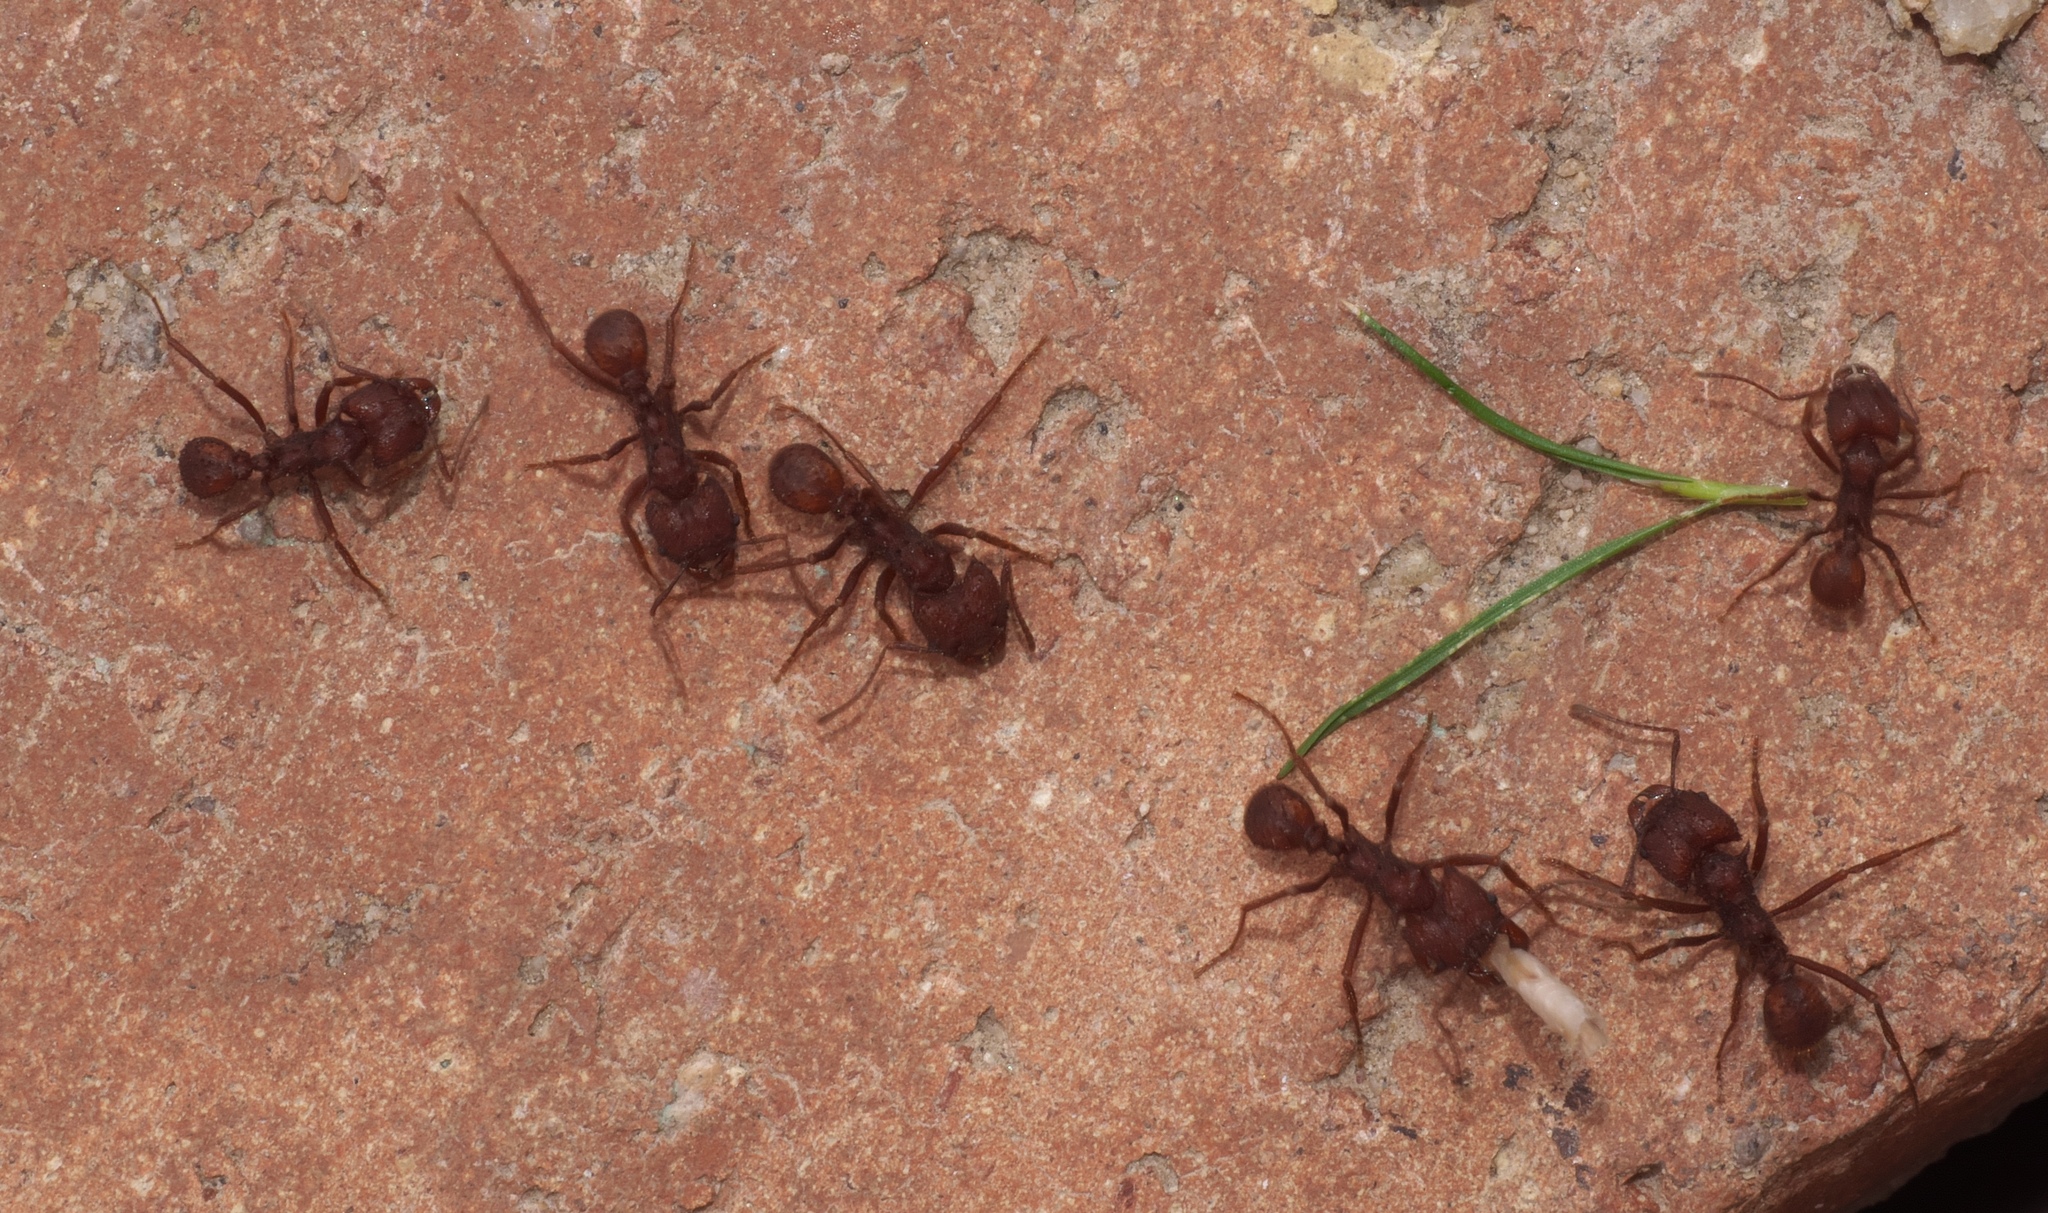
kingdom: Animalia
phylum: Arthropoda
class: Insecta
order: Hymenoptera
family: Formicidae
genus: Acromyrmex
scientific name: Acromyrmex versicolor
